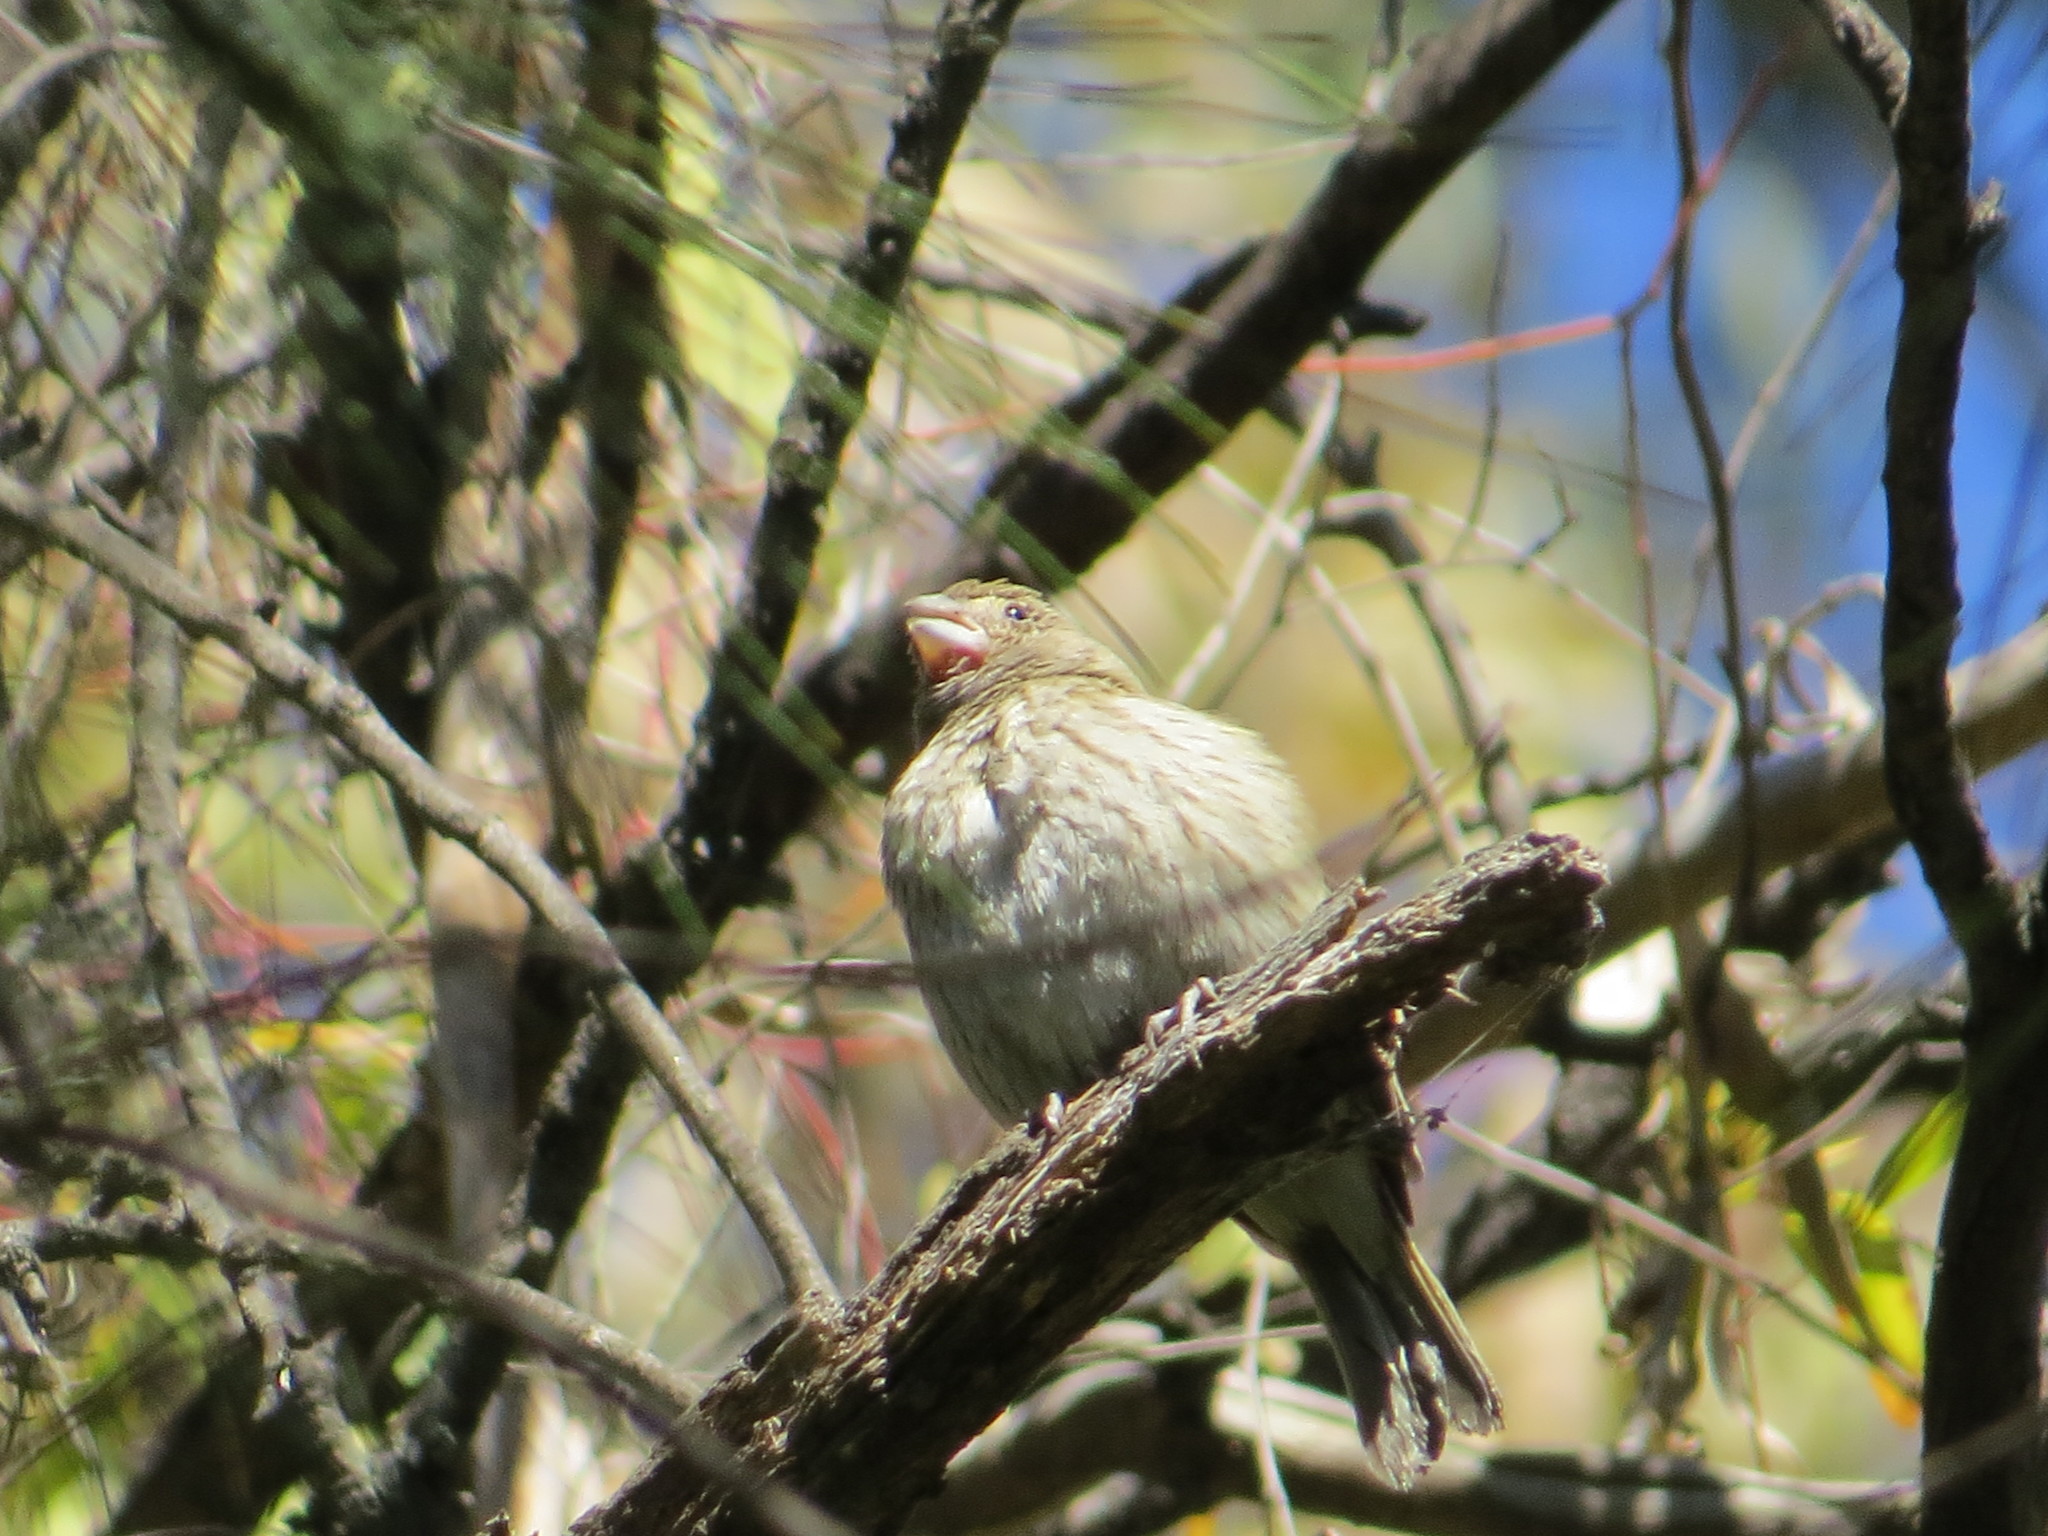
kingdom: Animalia
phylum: Chordata
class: Aves
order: Passeriformes
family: Thraupidae
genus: Sicalis
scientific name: Sicalis flaveola
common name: Saffron finch
